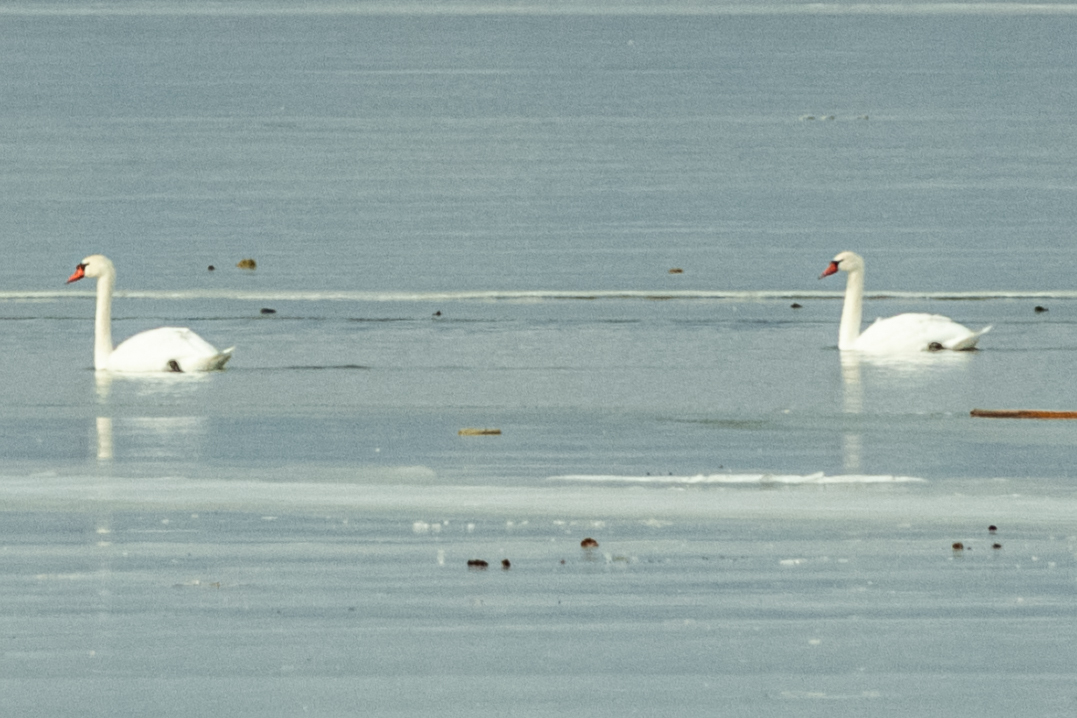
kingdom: Animalia
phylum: Chordata
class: Aves
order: Anseriformes
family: Anatidae
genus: Cygnus
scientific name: Cygnus olor
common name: Mute swan
